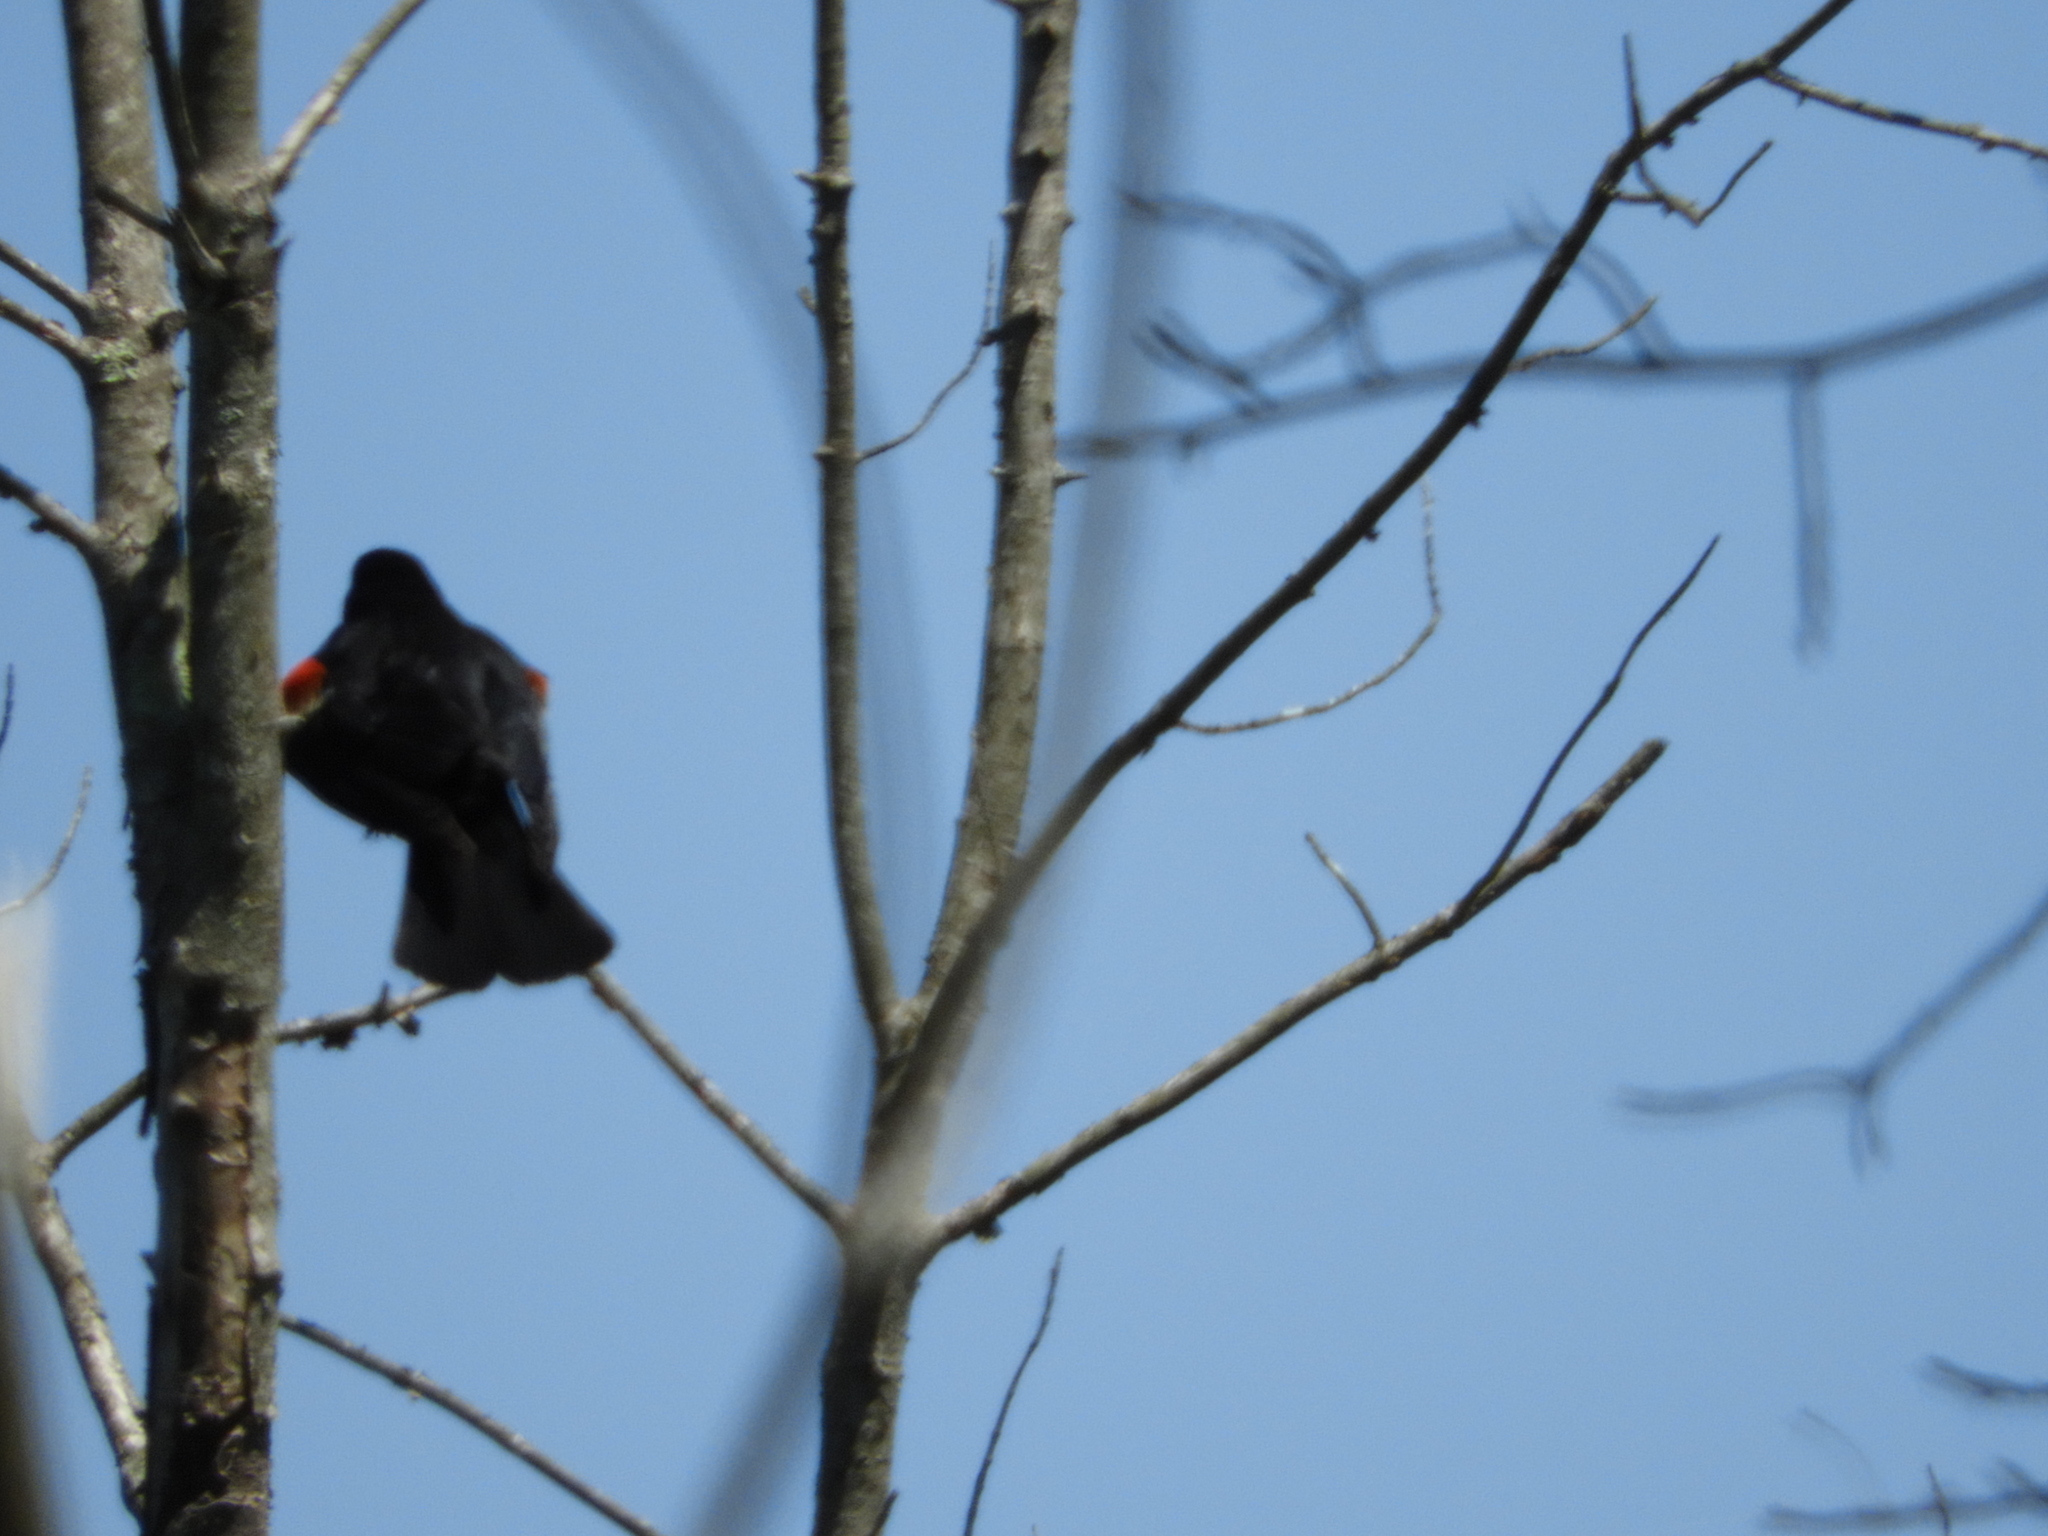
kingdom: Animalia
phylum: Chordata
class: Aves
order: Passeriformes
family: Icteridae
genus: Agelaius
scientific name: Agelaius phoeniceus
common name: Red-winged blackbird
